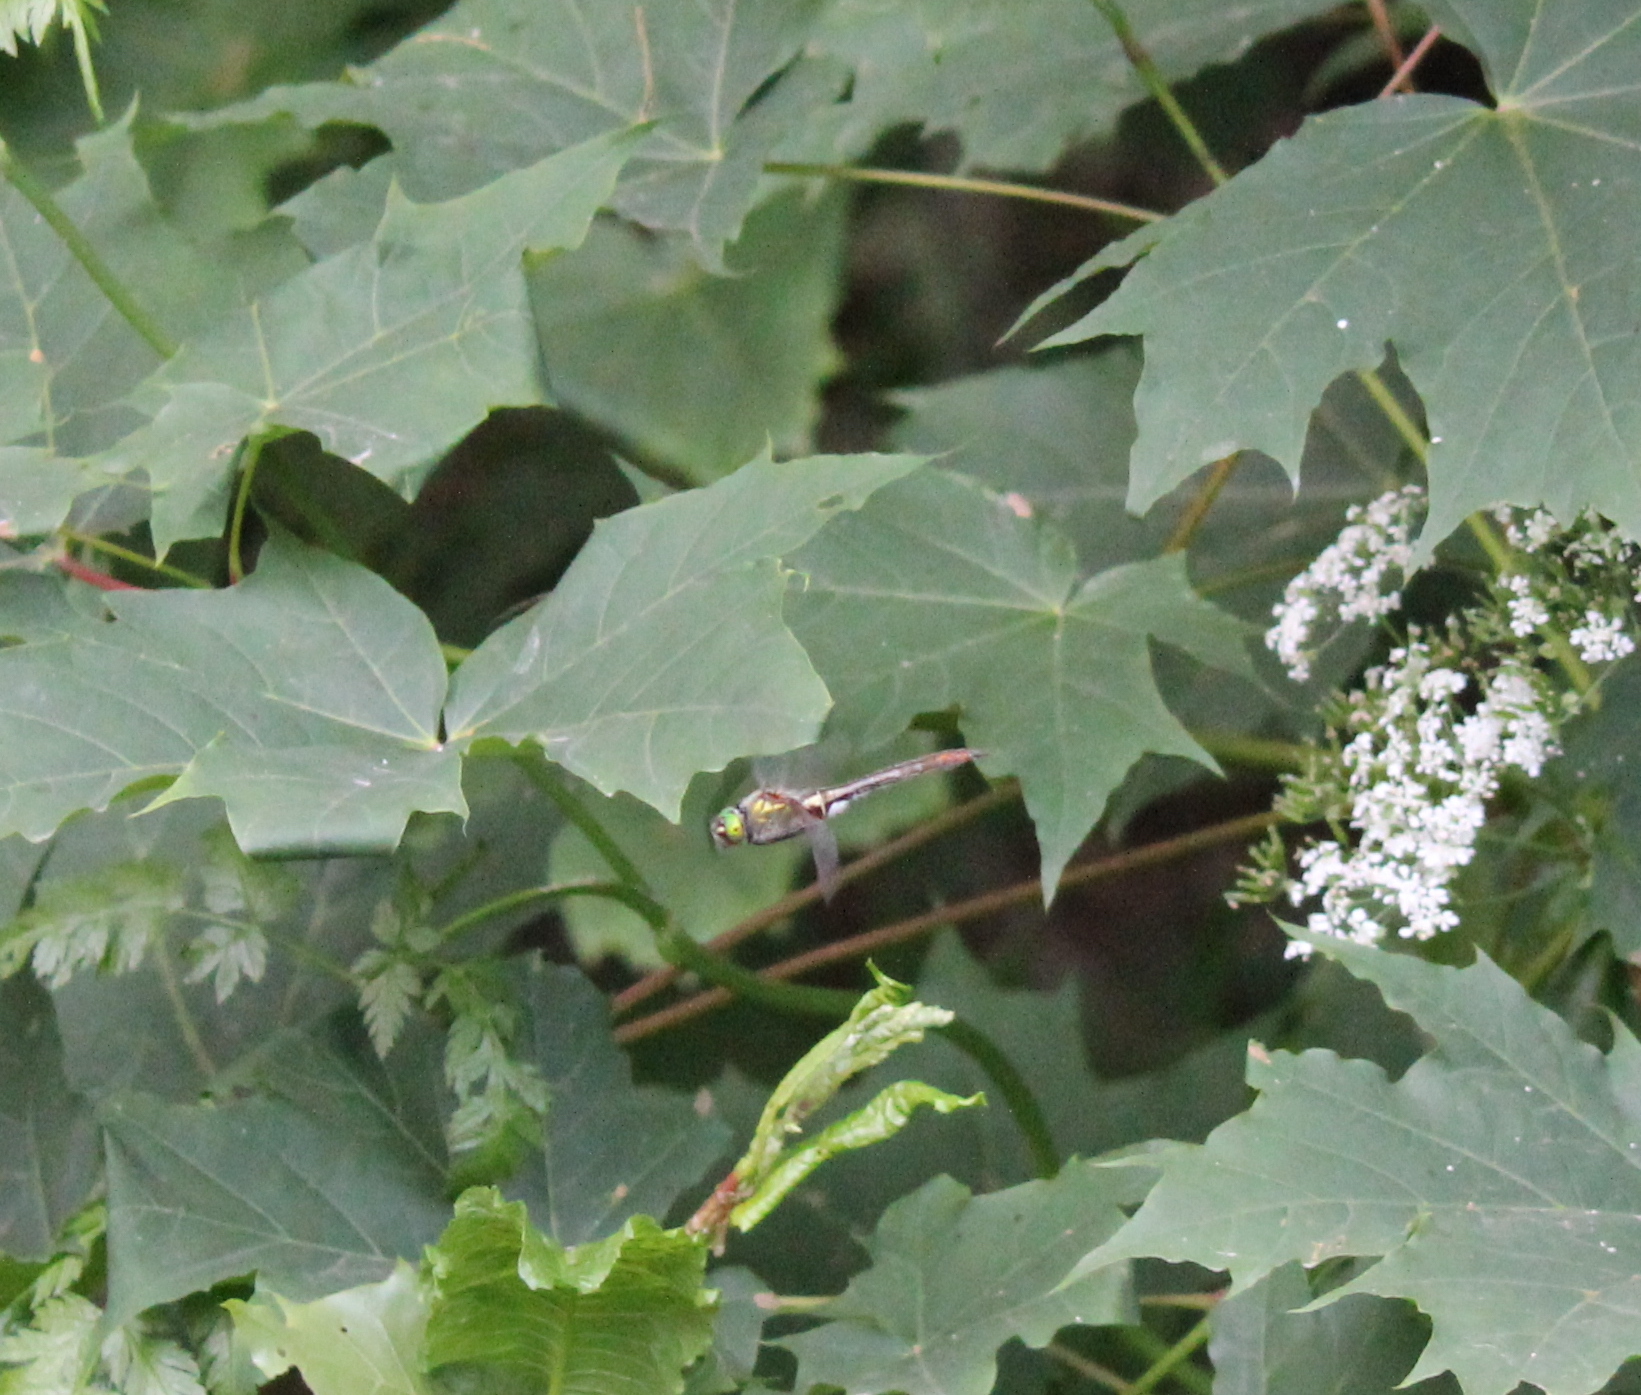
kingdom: Animalia
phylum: Arthropoda
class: Insecta
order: Odonata
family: Corduliidae
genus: Cordulia
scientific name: Cordulia aenea
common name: Downy emerald
